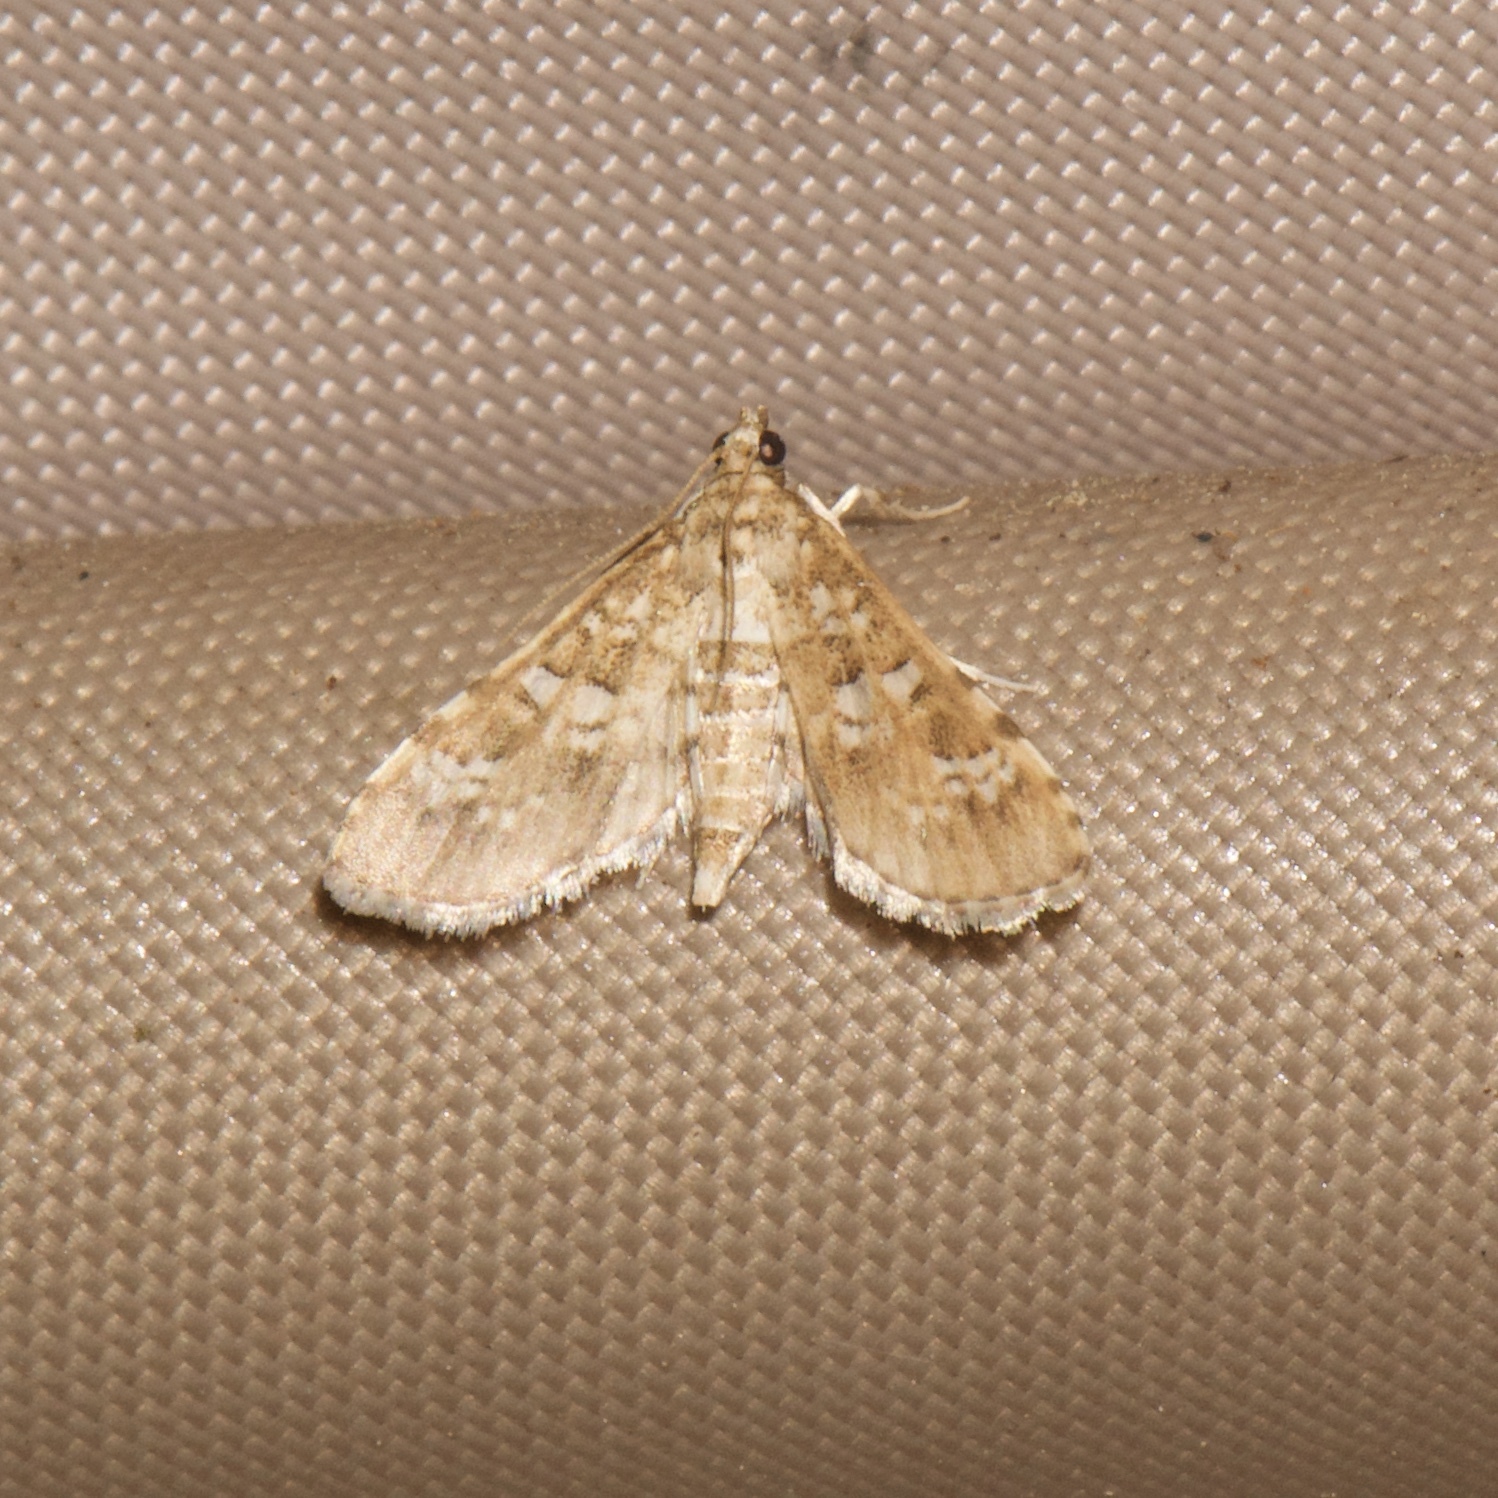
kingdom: Animalia
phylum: Arthropoda
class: Insecta
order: Lepidoptera
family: Crambidae
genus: Samea
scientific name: Samea multiplicalis
